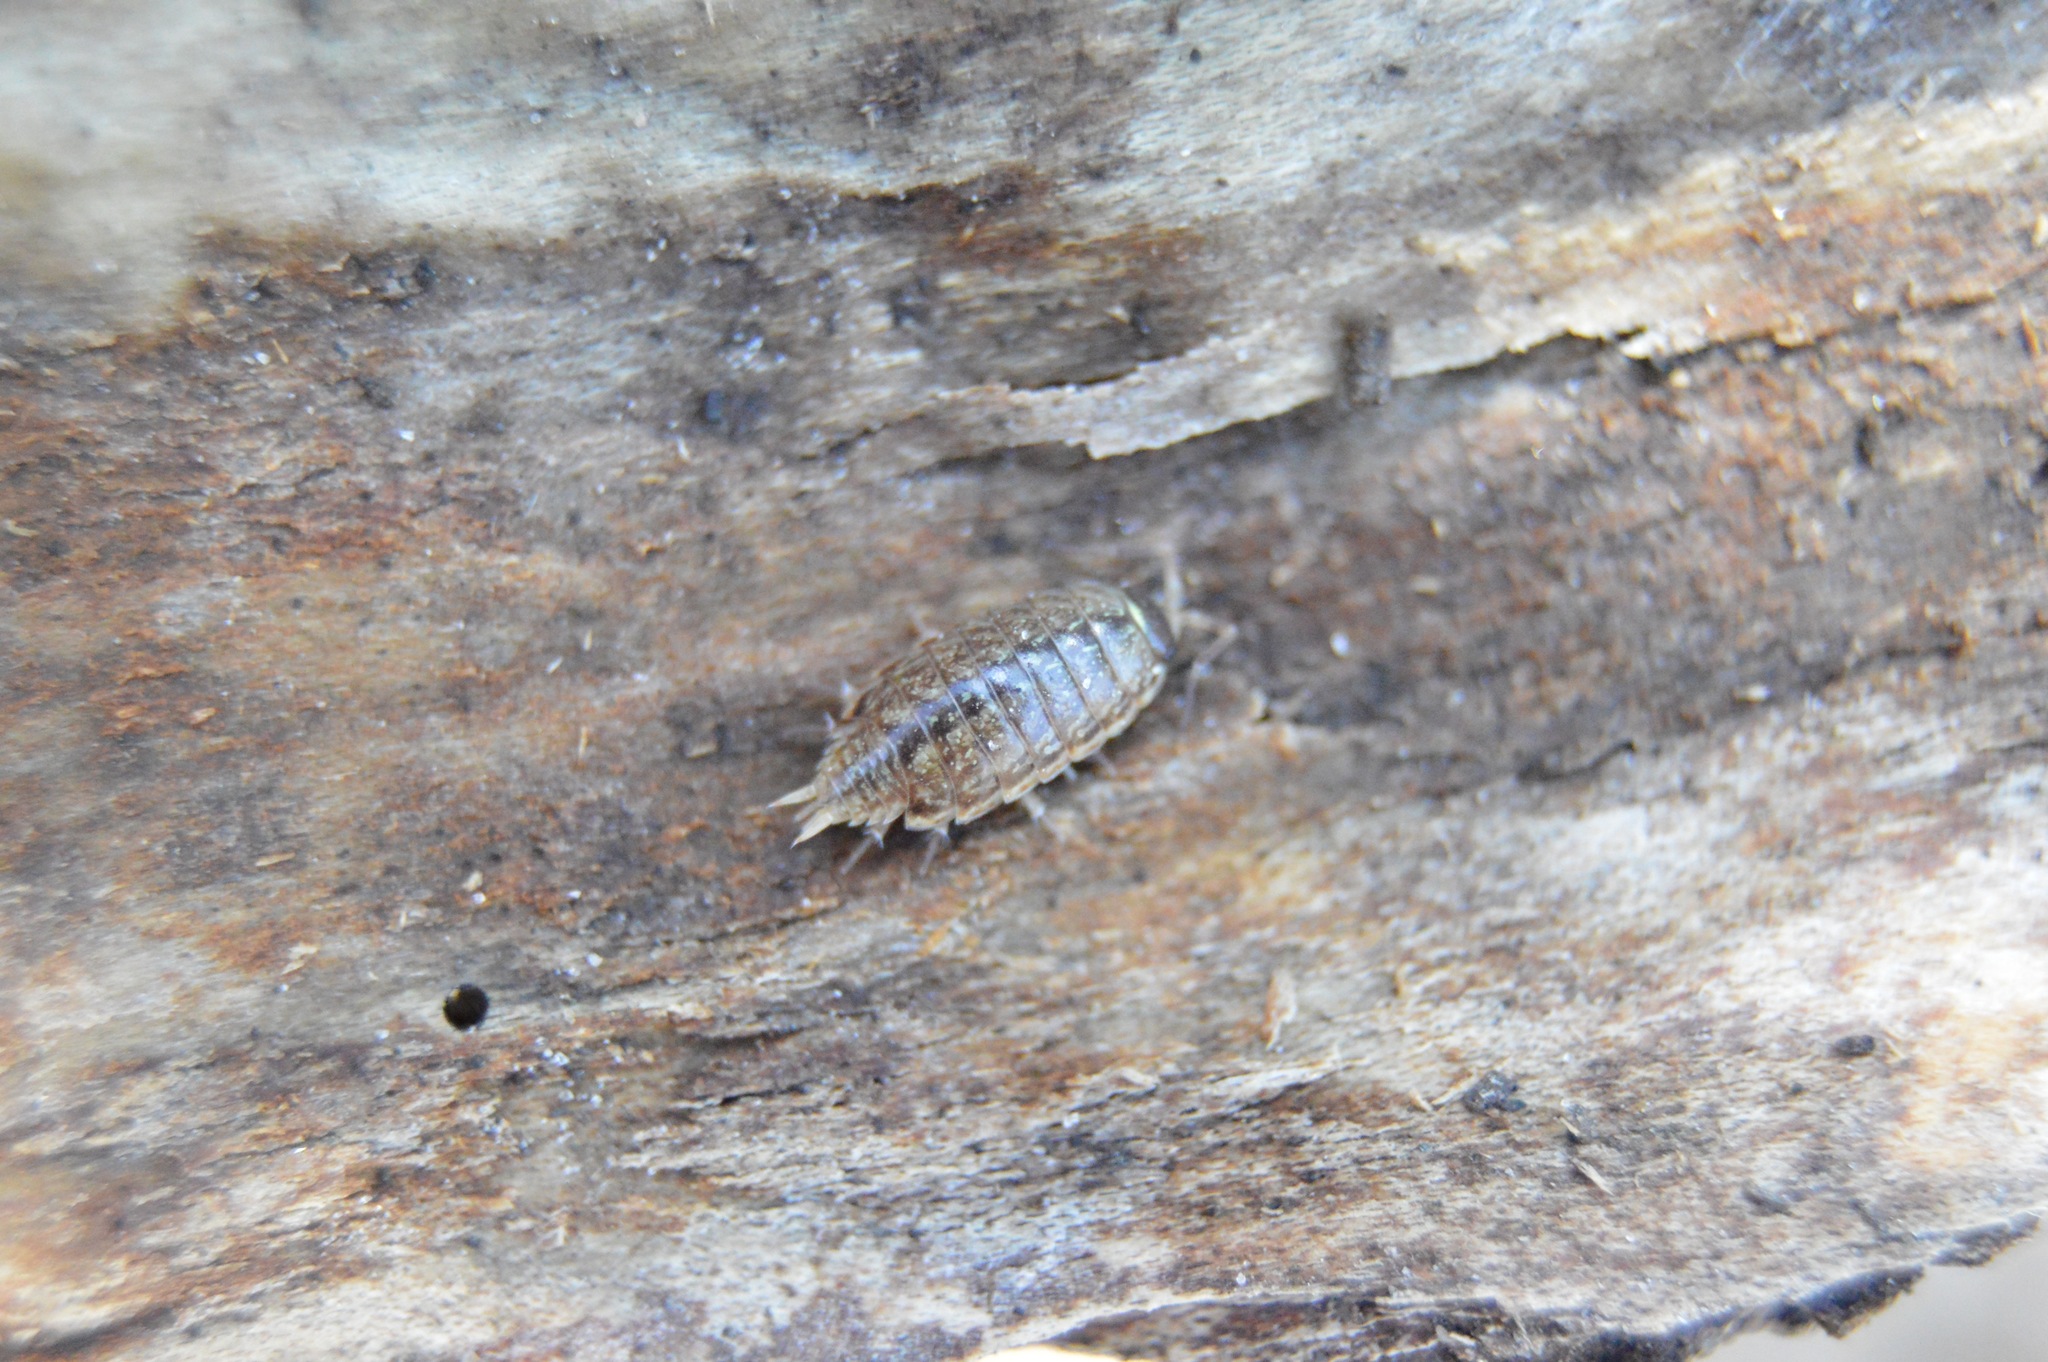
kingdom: Animalia
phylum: Arthropoda
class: Malacostraca
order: Isopoda
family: Philosciidae
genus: Philoscia
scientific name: Philoscia muscorum
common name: Common striped woodlouse
